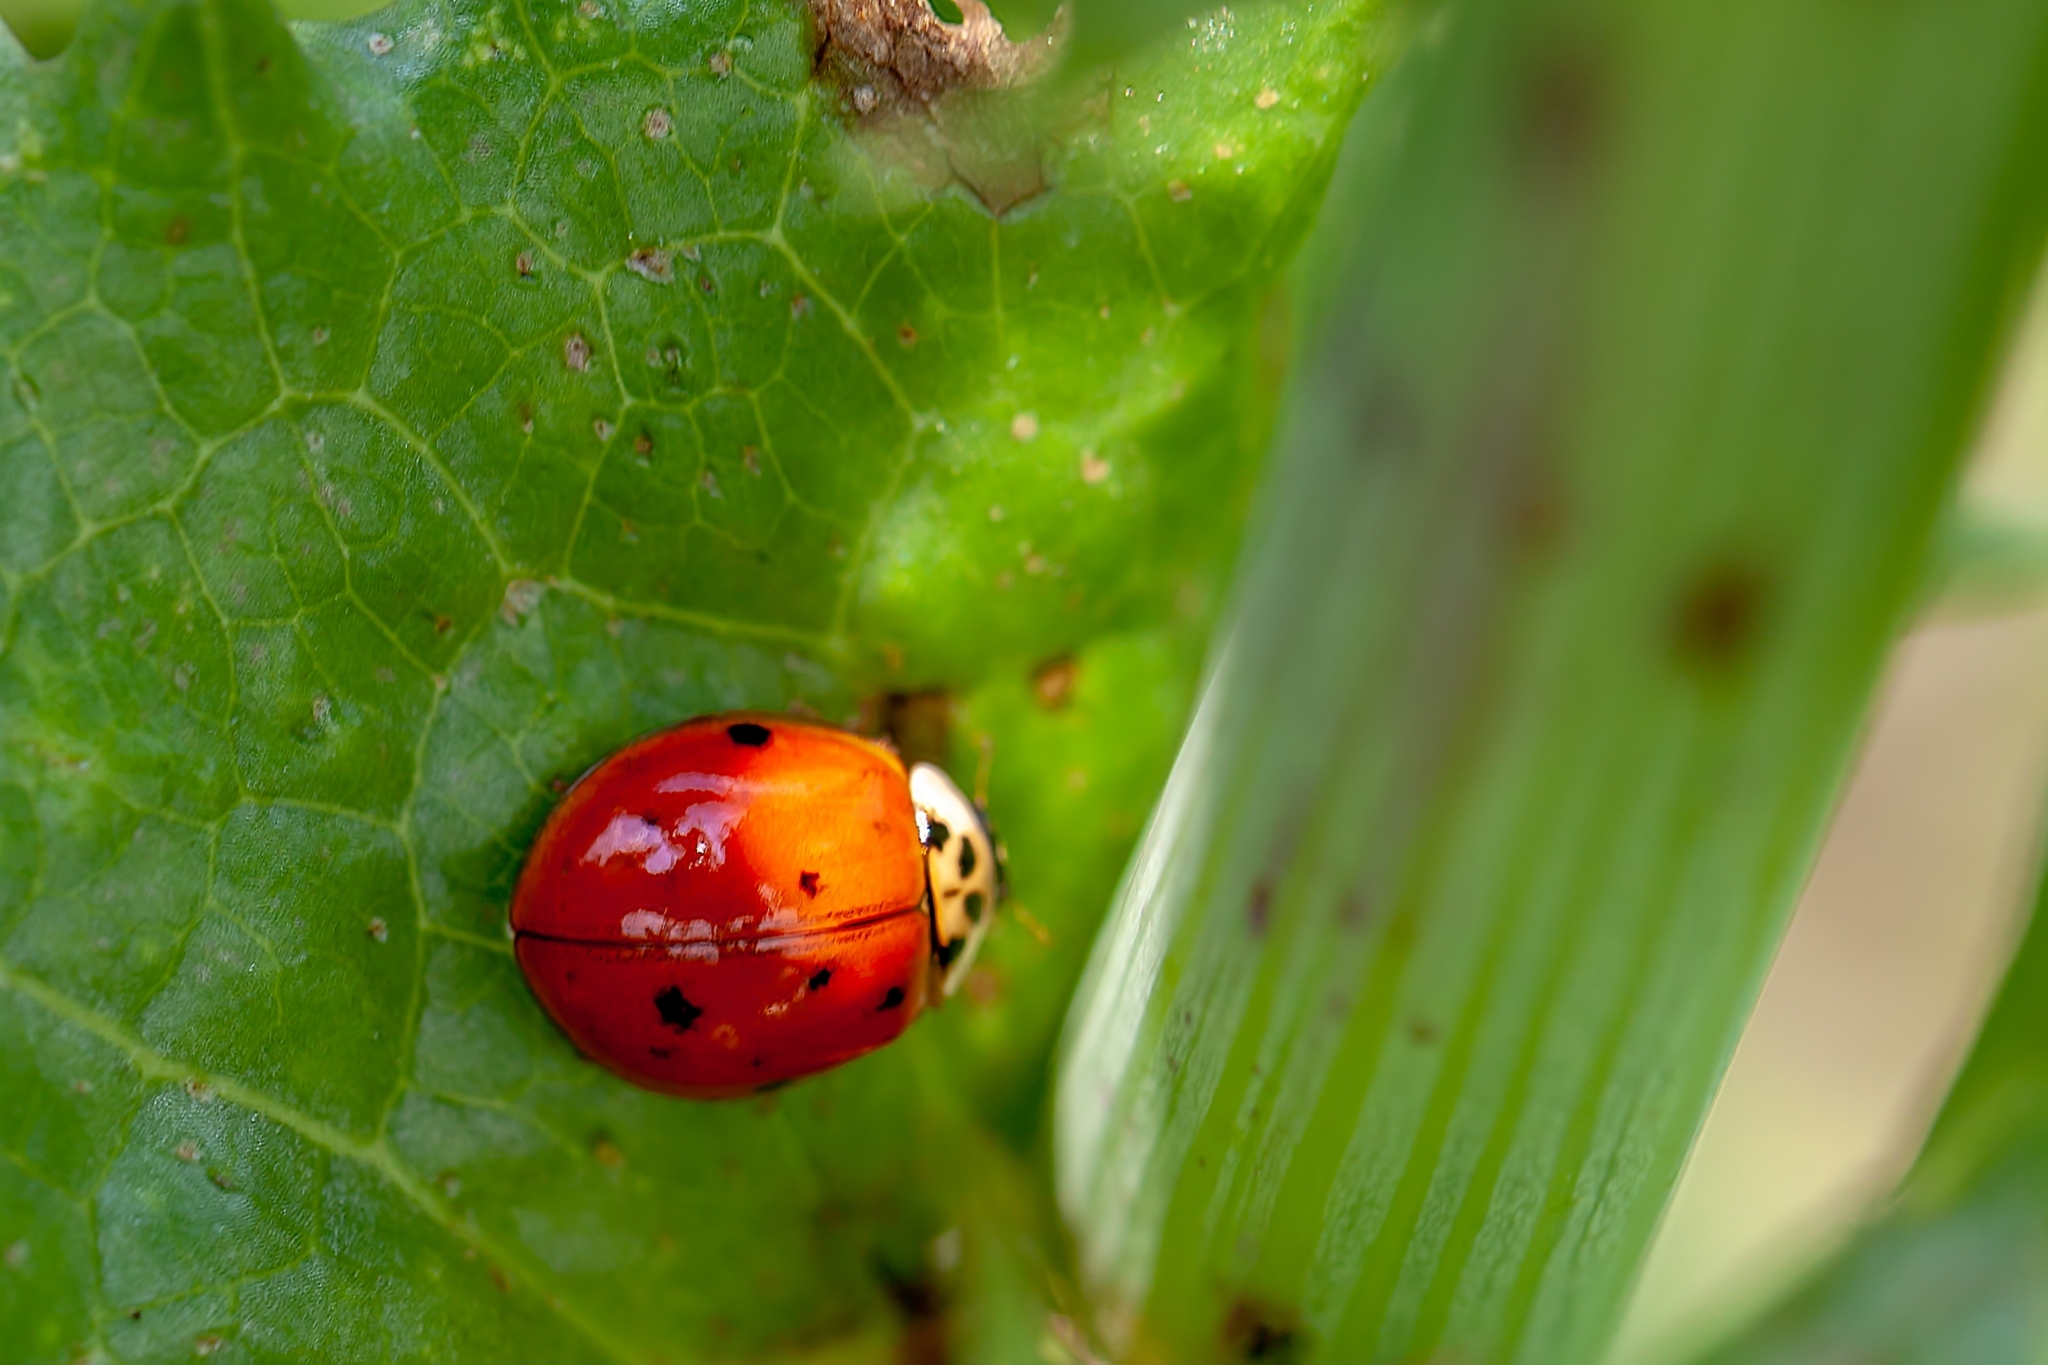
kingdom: Animalia
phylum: Arthropoda
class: Insecta
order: Coleoptera
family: Coccinellidae
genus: Harmonia
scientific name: Harmonia axyridis
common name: Harlequin ladybird
